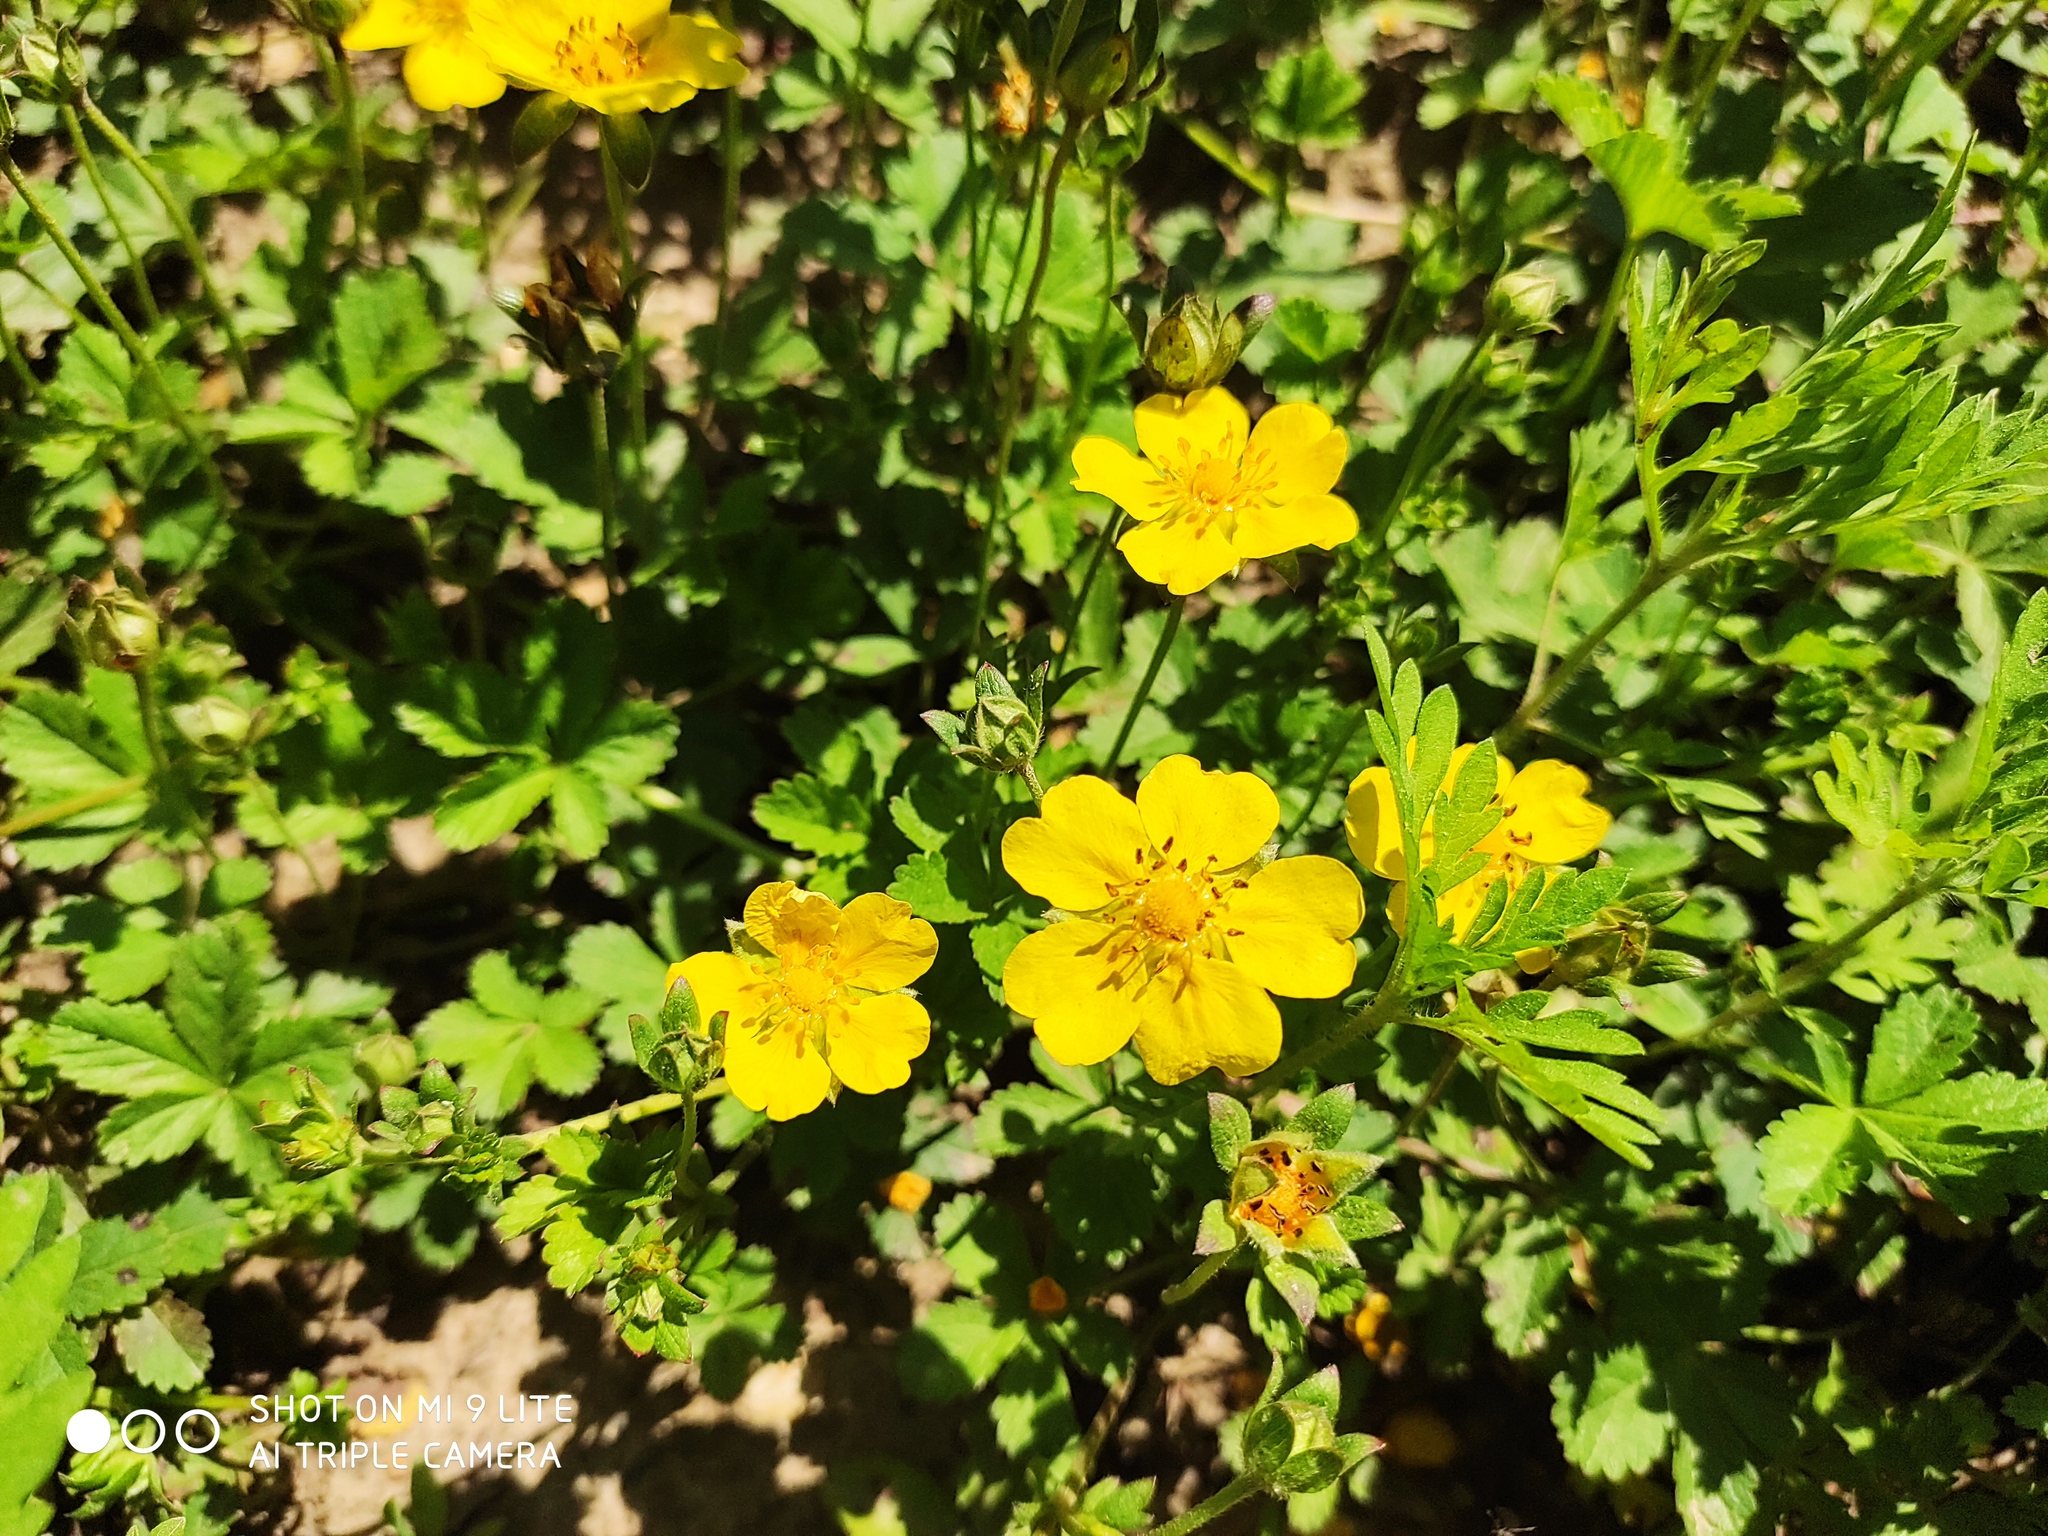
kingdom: Plantae
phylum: Tracheophyta
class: Magnoliopsida
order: Rosales
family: Rosaceae
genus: Potentilla
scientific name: Potentilla reptans
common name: Creeping cinquefoil
